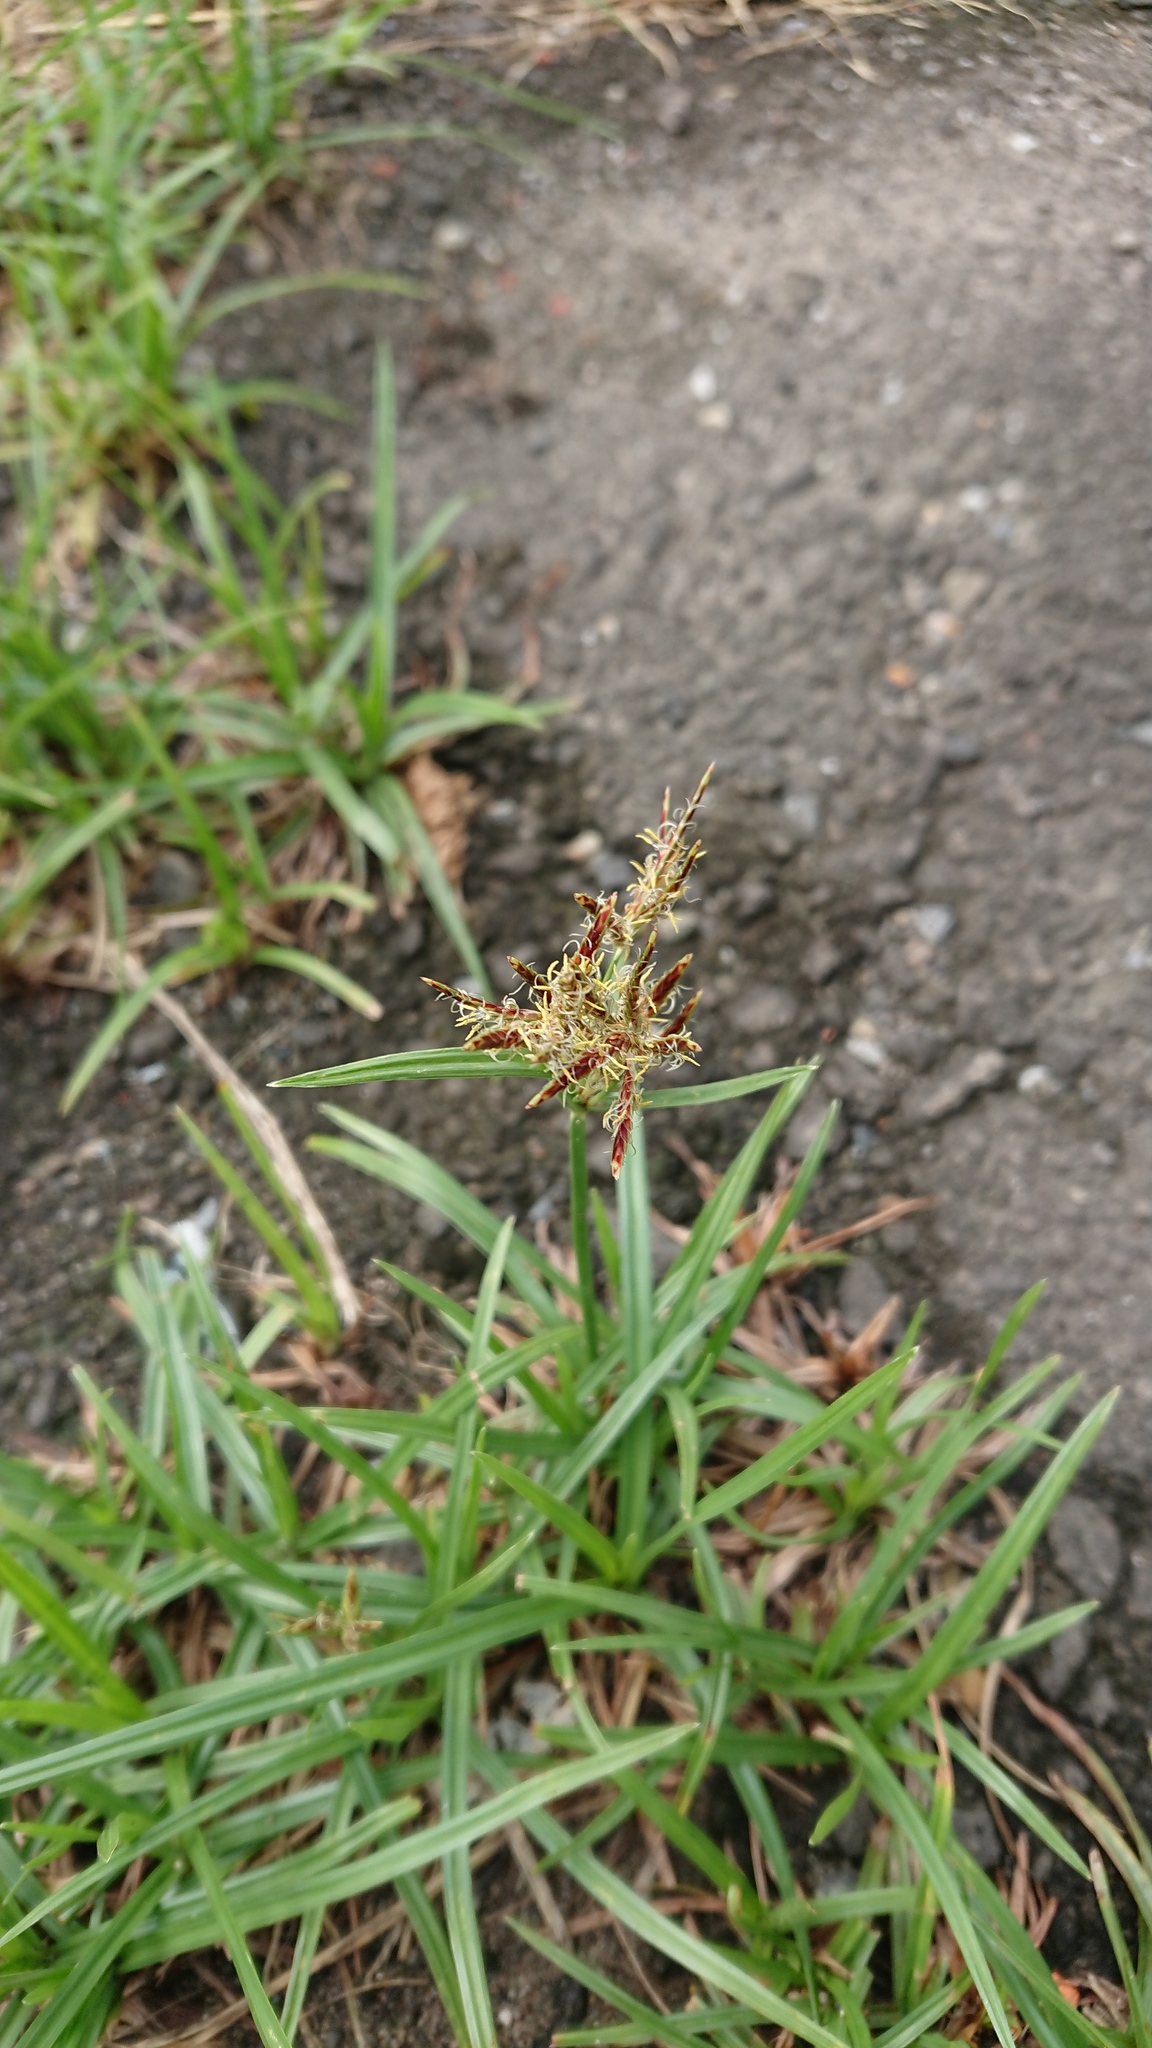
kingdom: Plantae
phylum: Tracheophyta
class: Liliopsida
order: Poales
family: Cyperaceae
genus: Cyperus
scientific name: Cyperus rotundus
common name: Nutgrass
